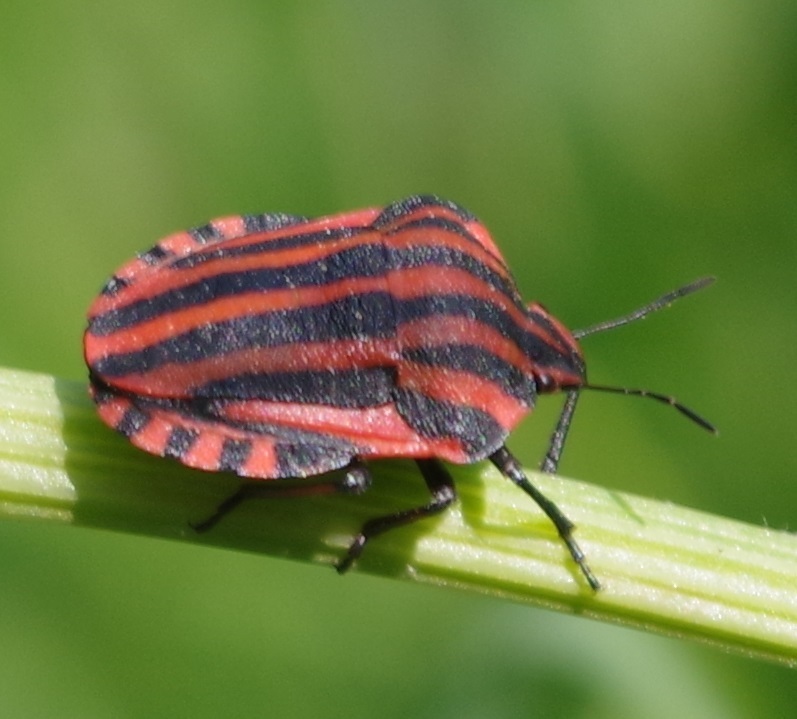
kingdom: Animalia
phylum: Arthropoda
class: Insecta
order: Hemiptera
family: Pentatomidae
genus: Graphosoma
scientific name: Graphosoma italicum
